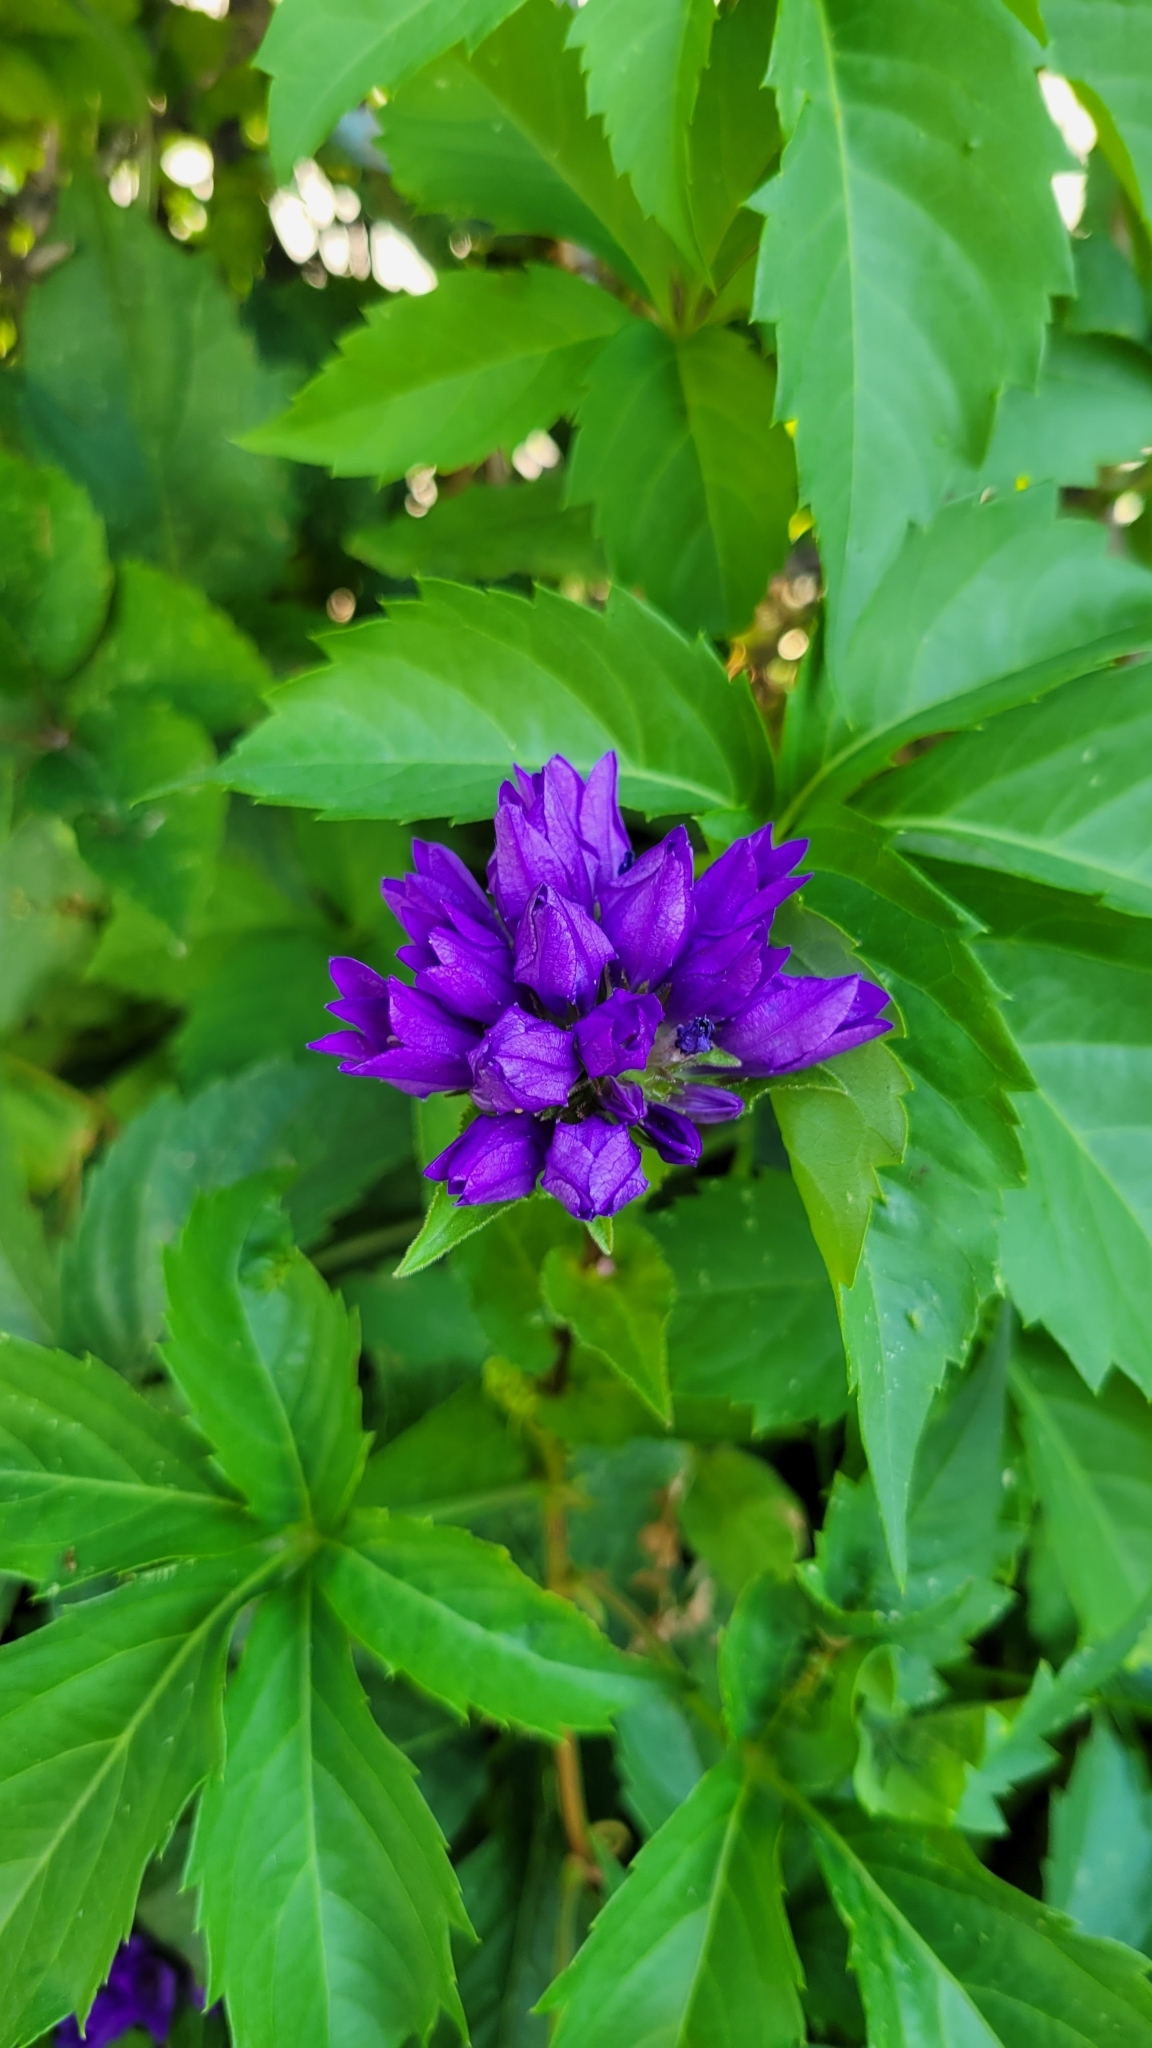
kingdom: Plantae
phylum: Tracheophyta
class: Magnoliopsida
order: Asterales
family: Campanulaceae
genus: Campanula
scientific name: Campanula glomerata
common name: Clustered bellflower
